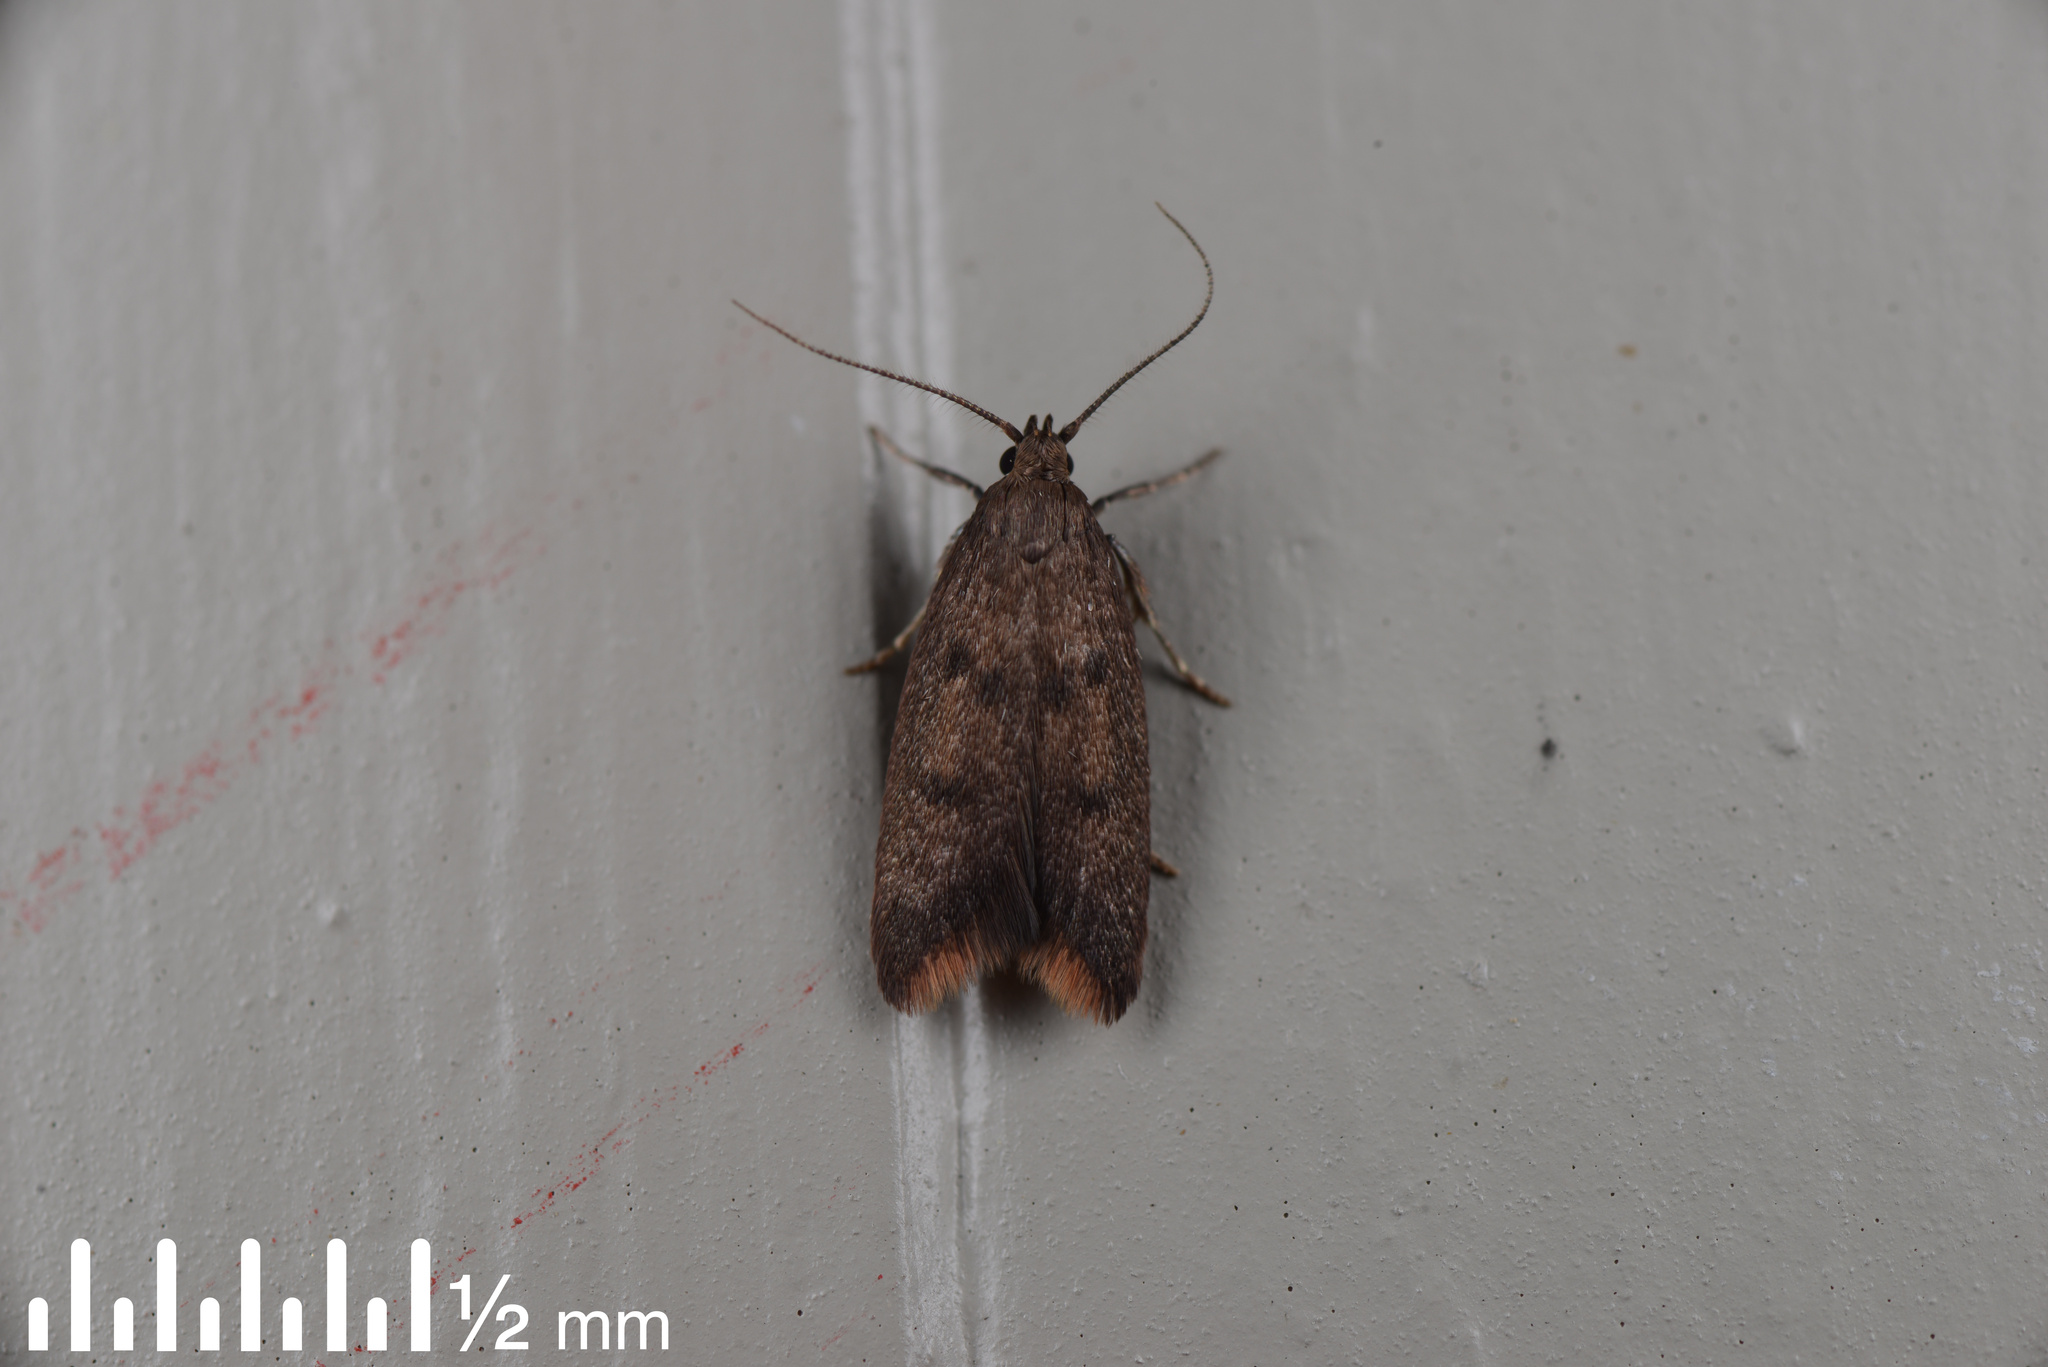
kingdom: Animalia
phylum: Arthropoda
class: Insecta
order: Lepidoptera
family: Oecophoridae
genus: Tachystola
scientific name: Tachystola acroxantha
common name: Ruddy streak
